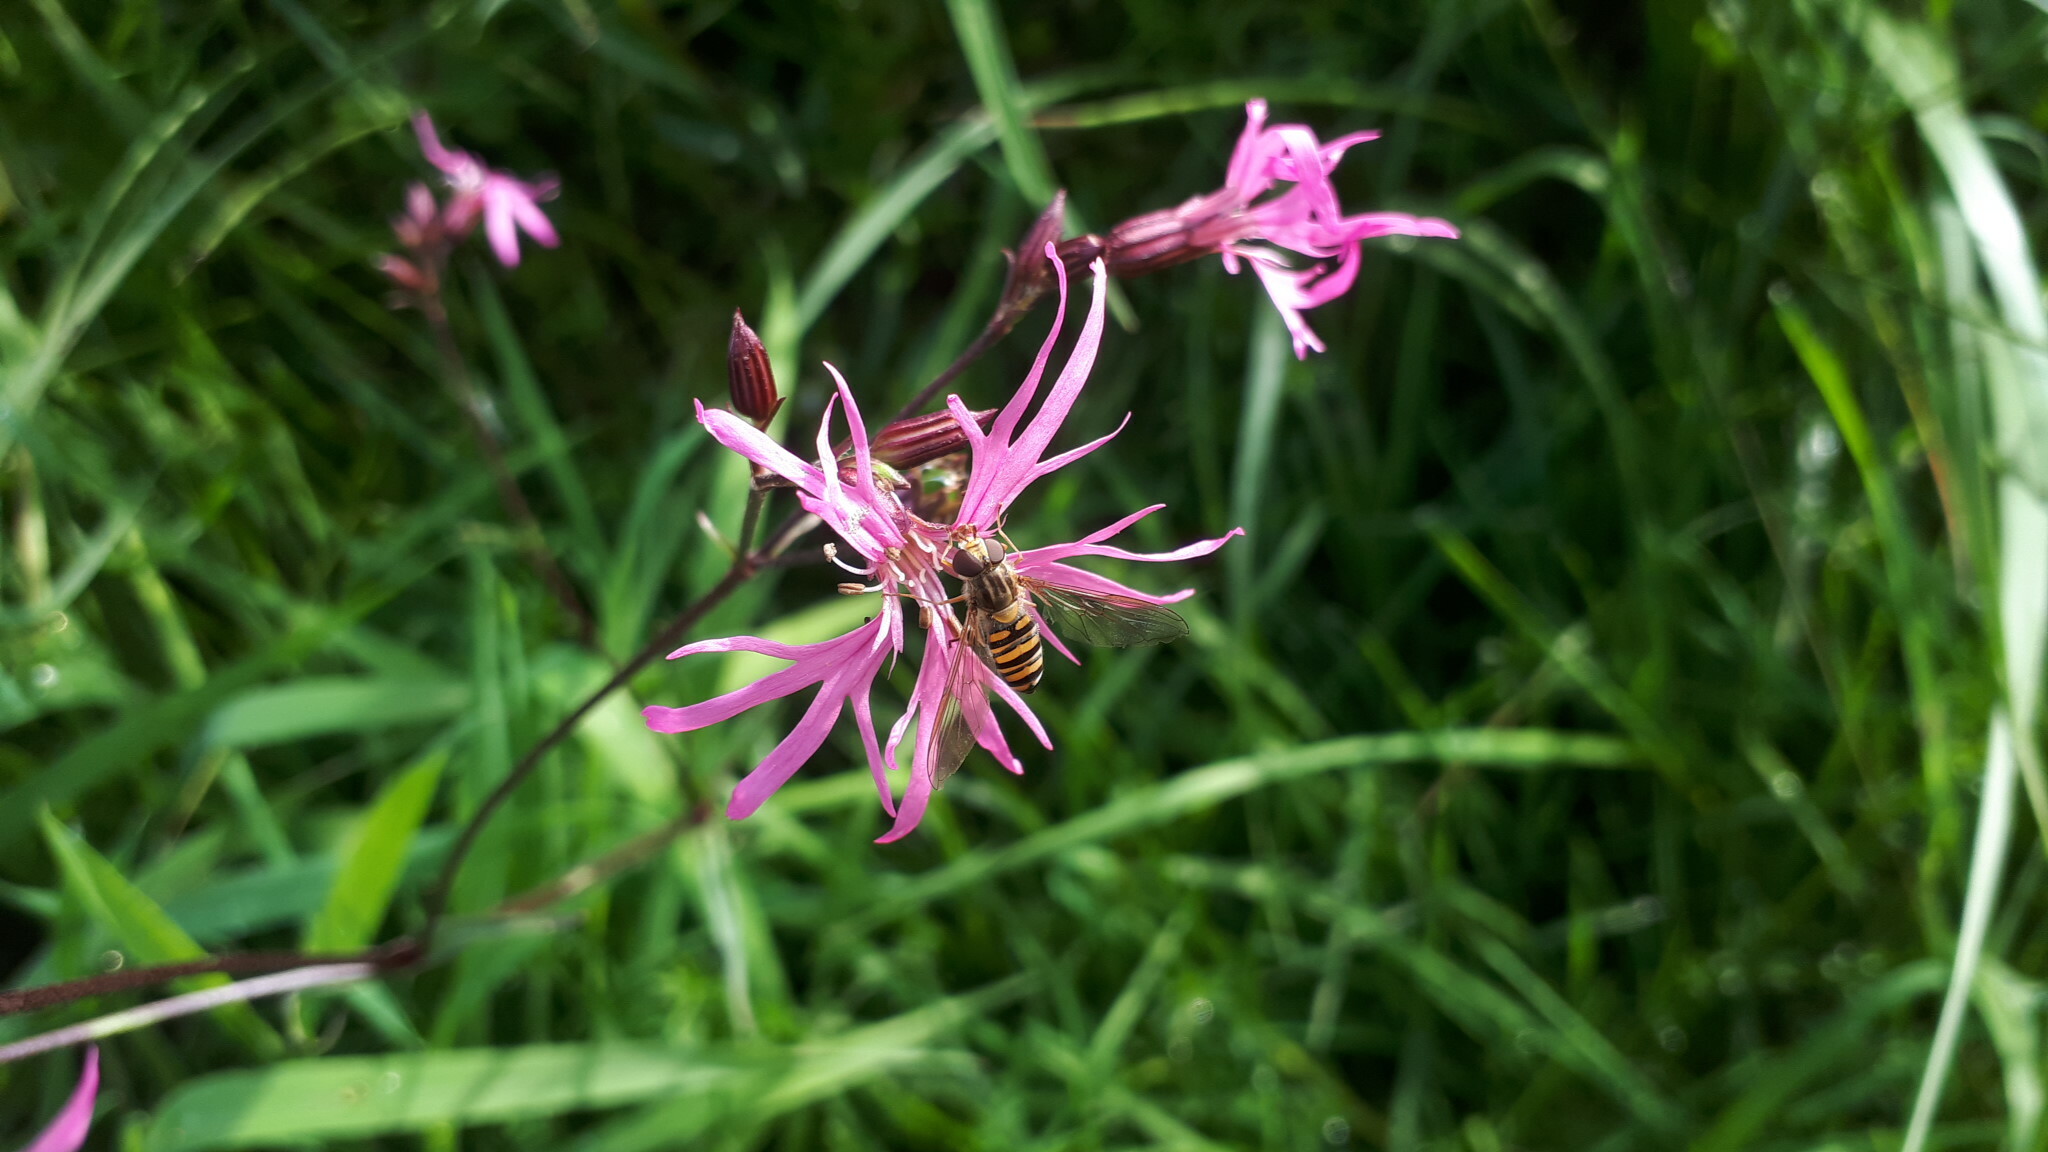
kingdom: Animalia
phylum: Arthropoda
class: Insecta
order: Diptera
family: Syrphidae
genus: Episyrphus
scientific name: Episyrphus balteatus
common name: Marmalade hoverfly
